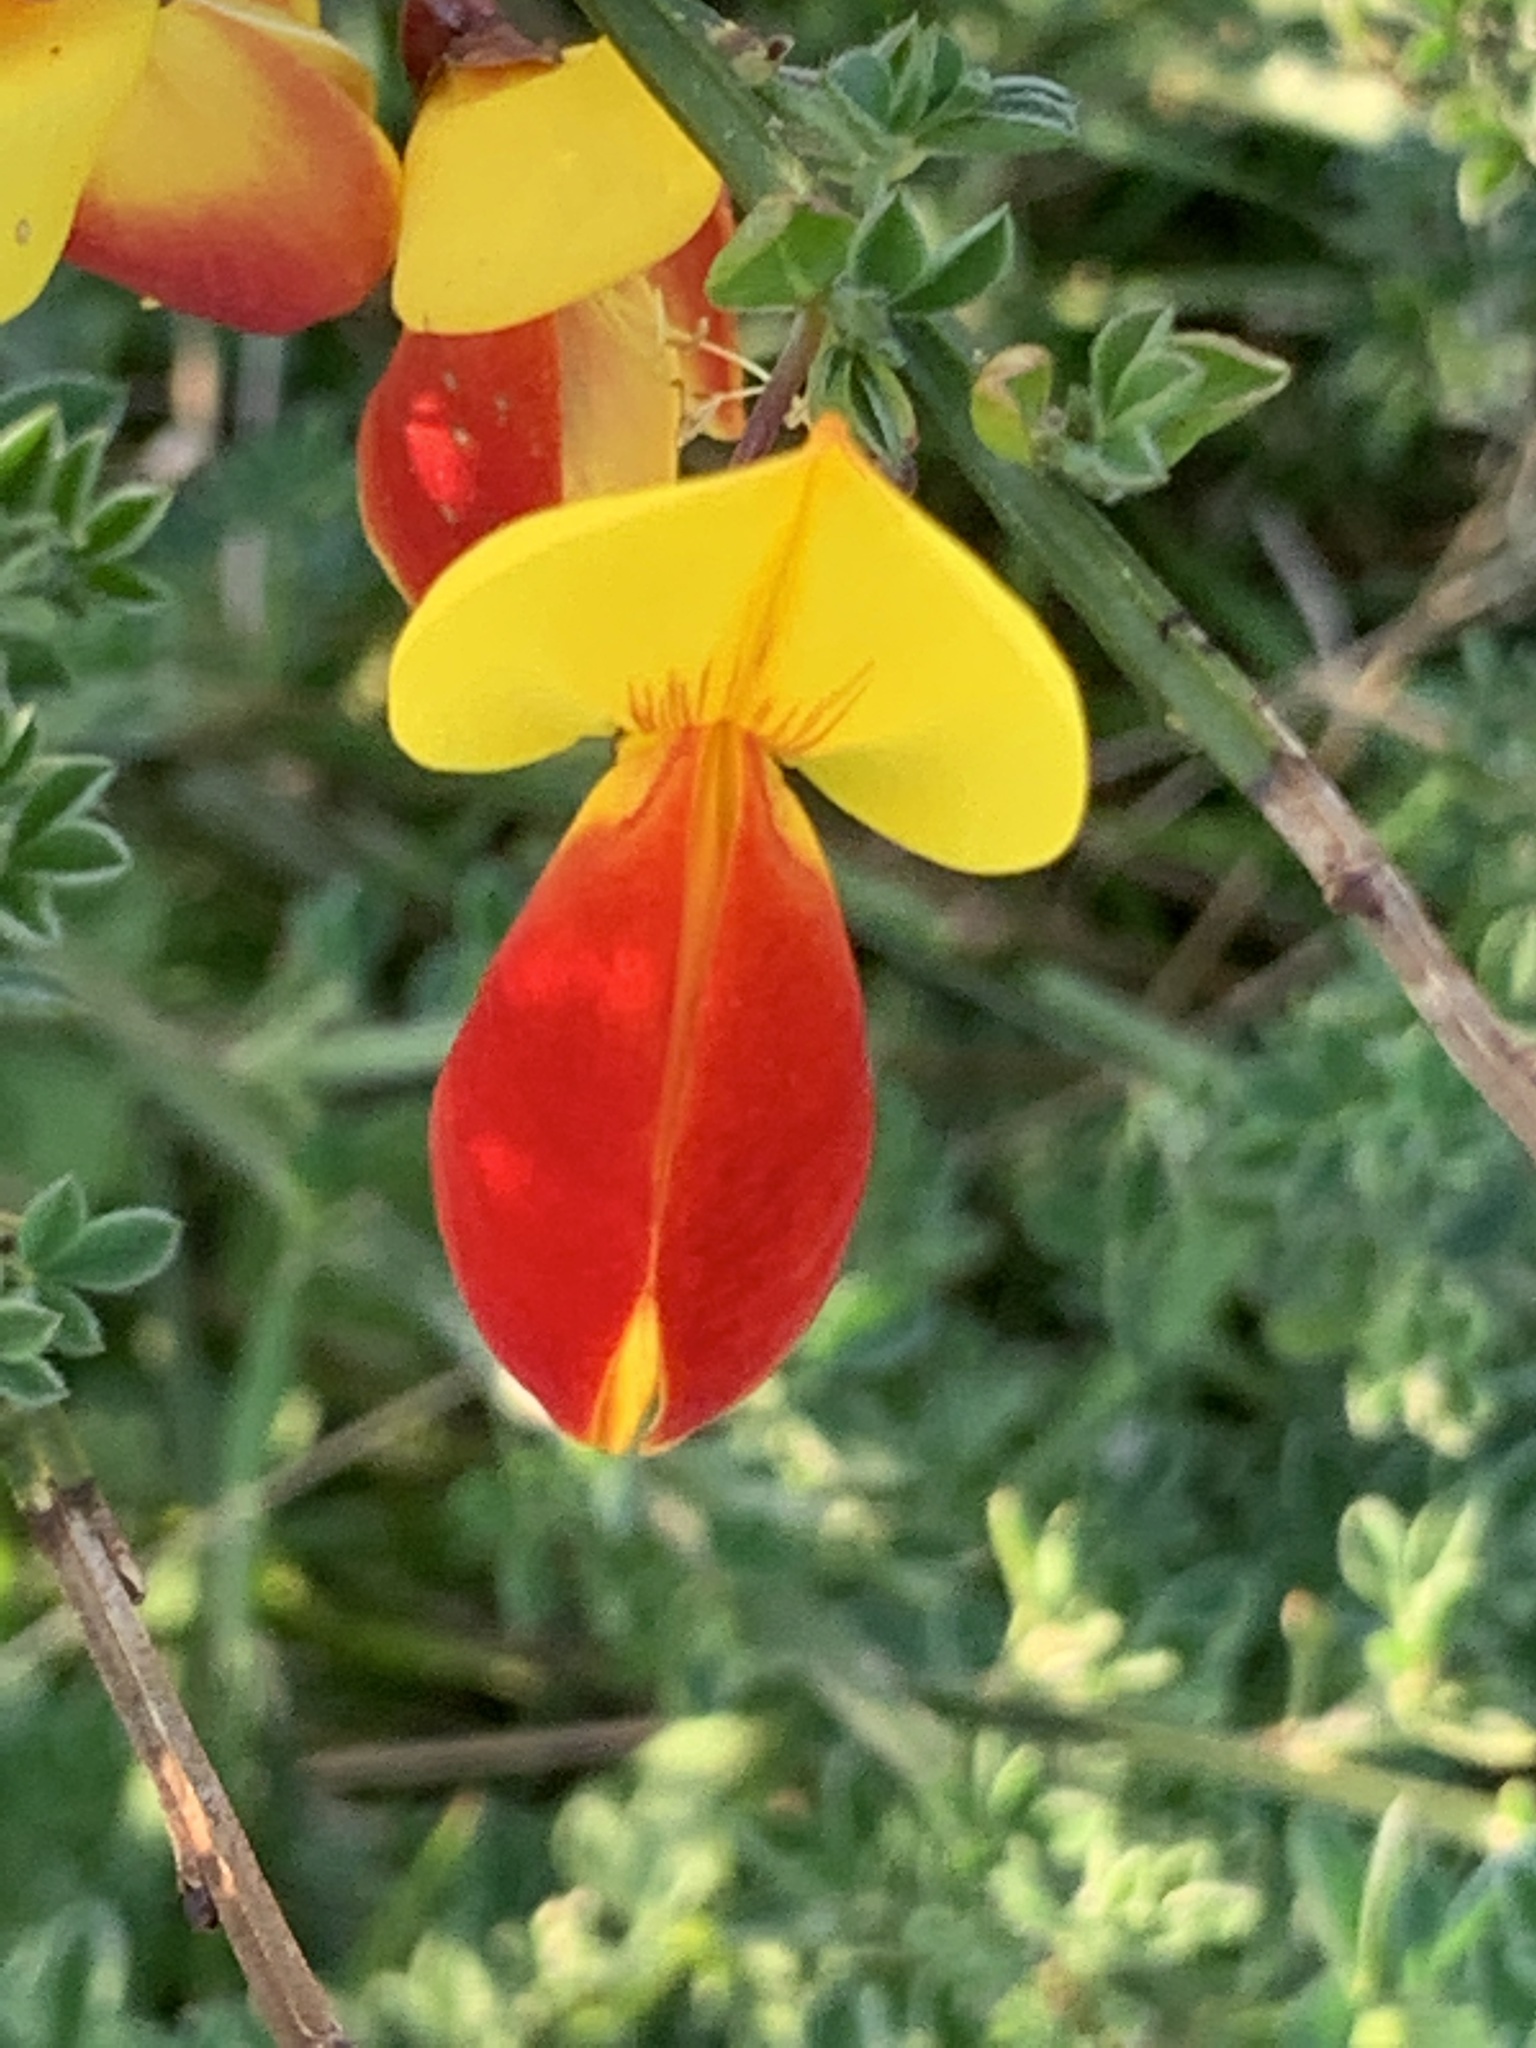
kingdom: Plantae
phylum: Tracheophyta
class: Magnoliopsida
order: Fabales
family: Fabaceae
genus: Cytisus
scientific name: Cytisus scoparius
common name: Scotch broom
